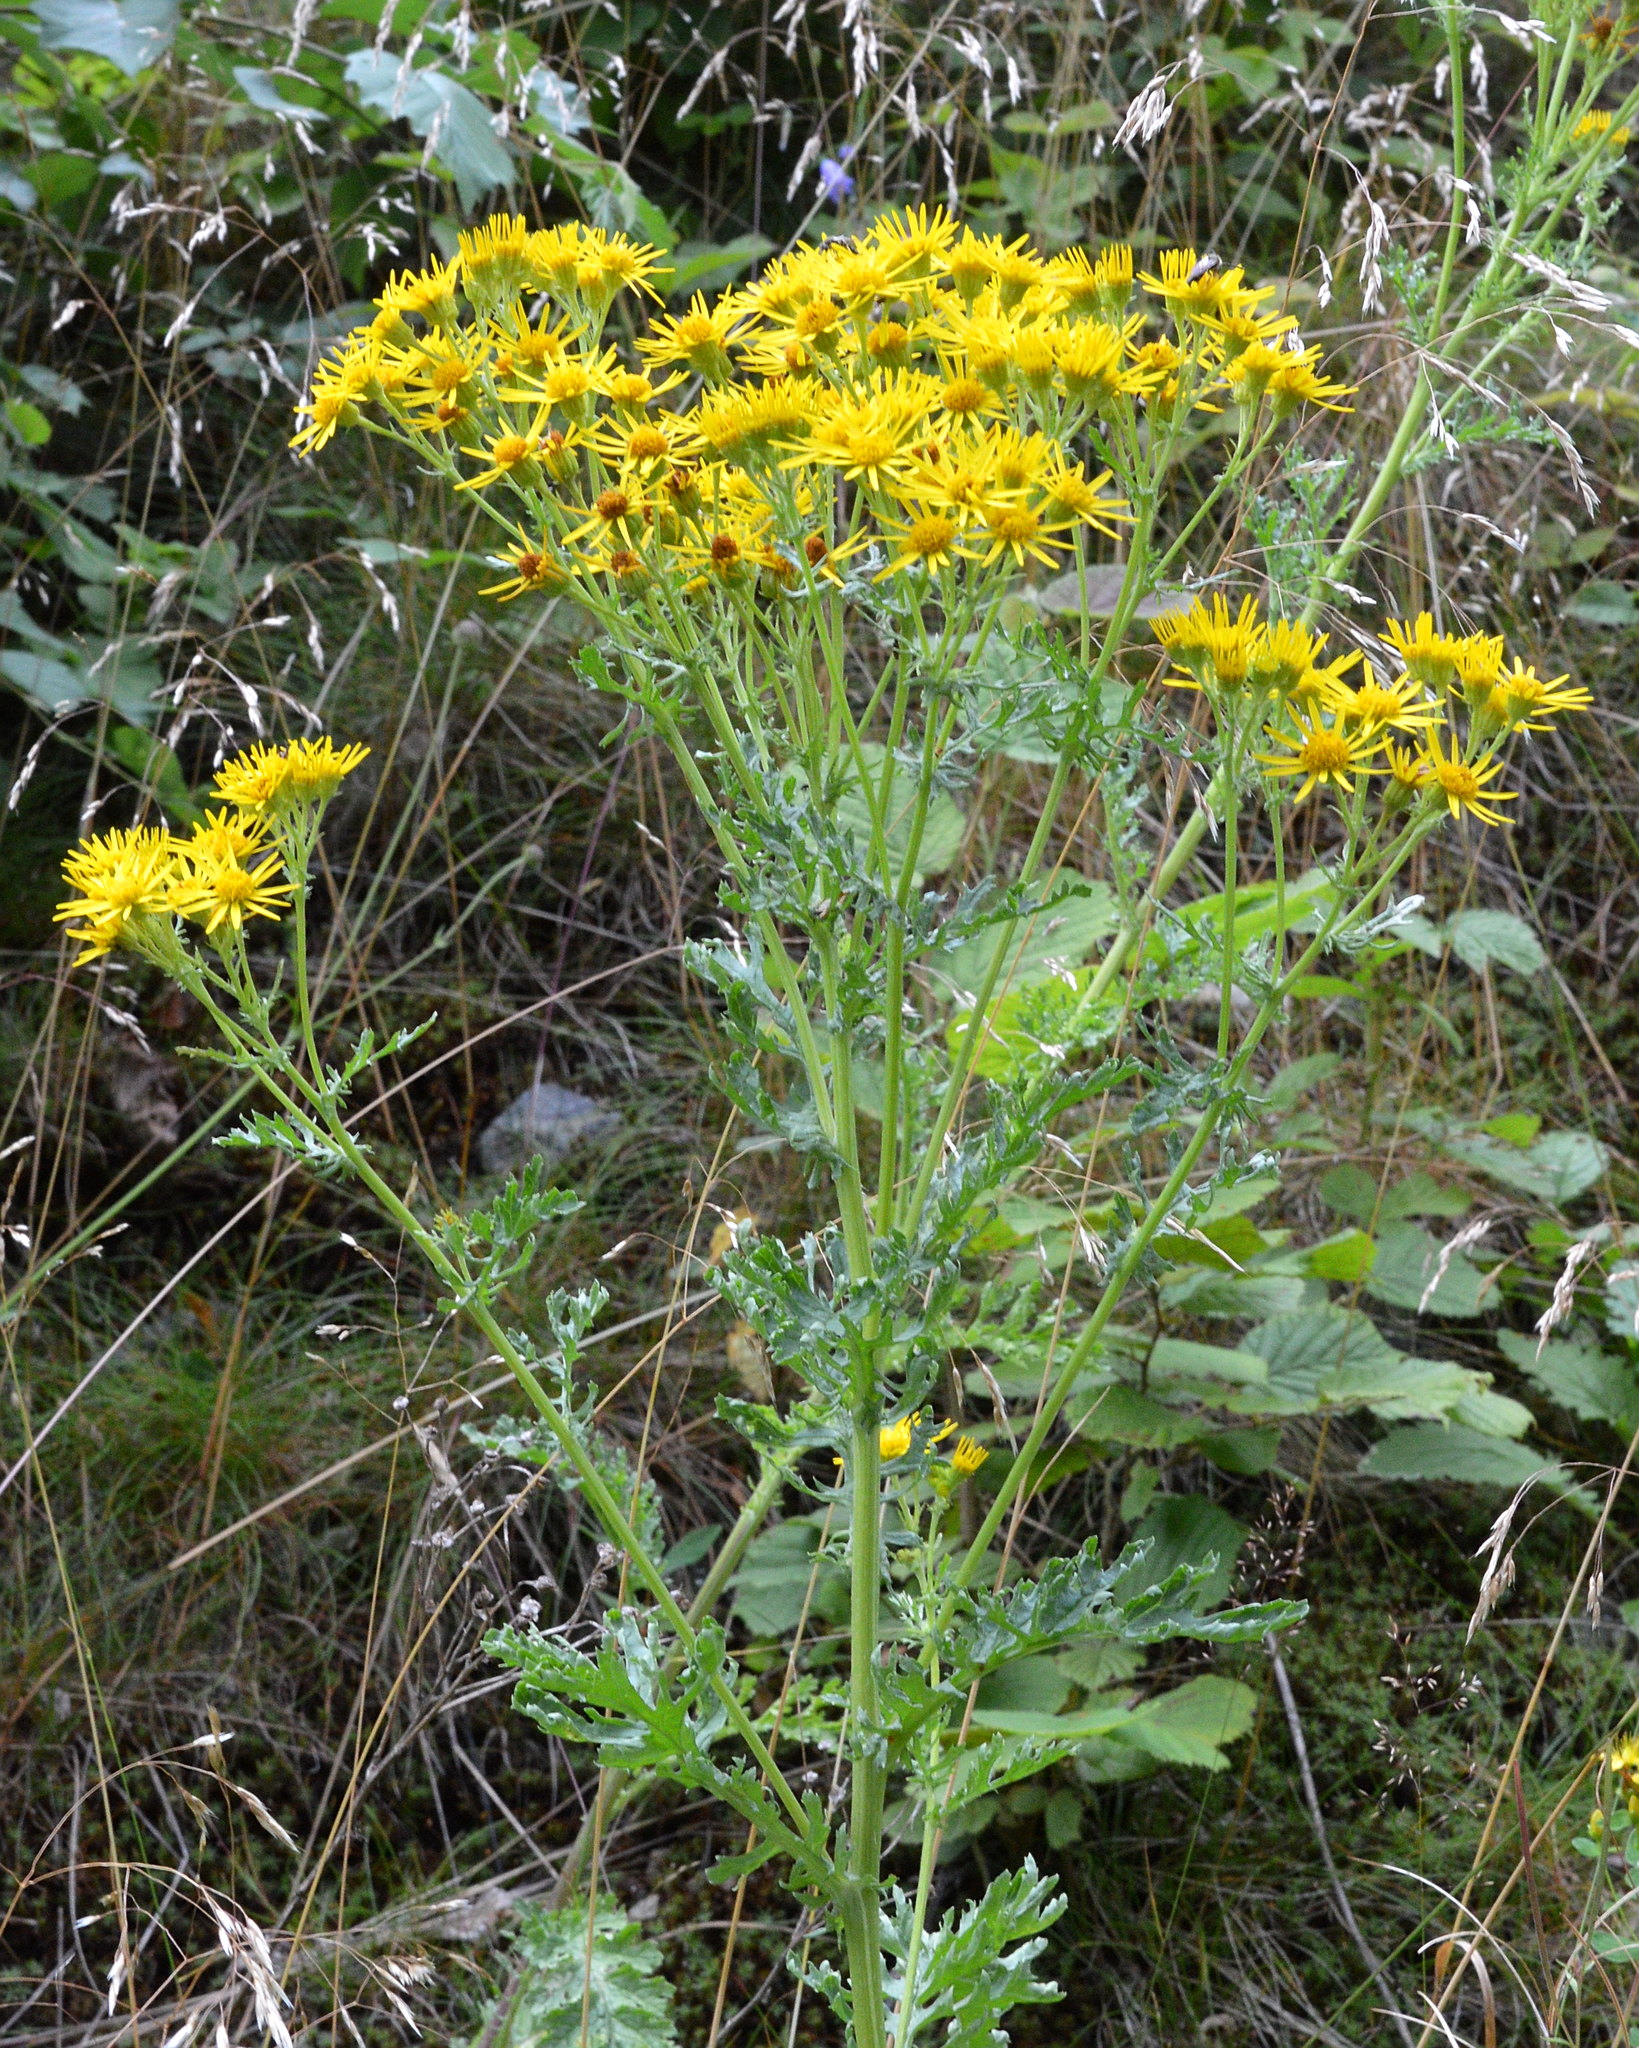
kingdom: Plantae
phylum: Tracheophyta
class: Magnoliopsida
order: Asterales
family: Asteraceae
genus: Jacobaea
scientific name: Jacobaea vulgaris
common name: Stinking willie
